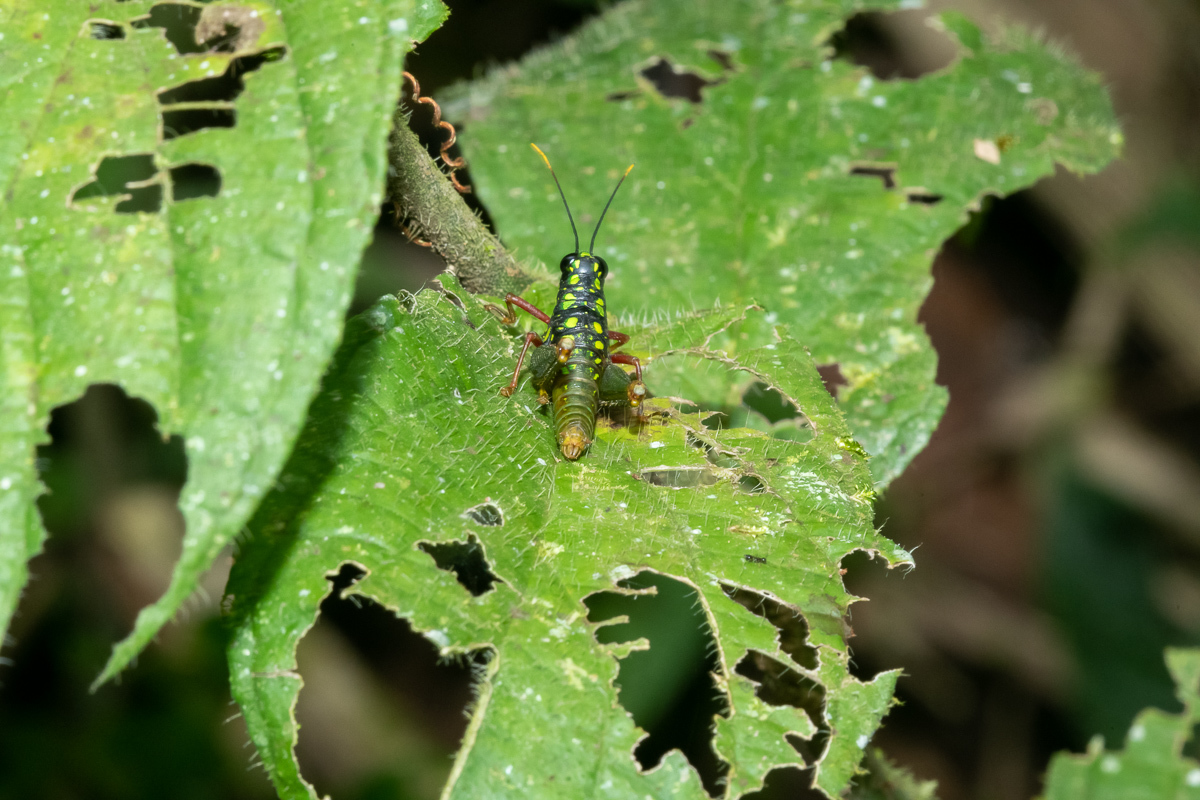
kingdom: Animalia
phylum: Arthropoda
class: Insecta
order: Orthoptera
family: Acrididae
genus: Galidacris
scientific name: Galidacris agilis
